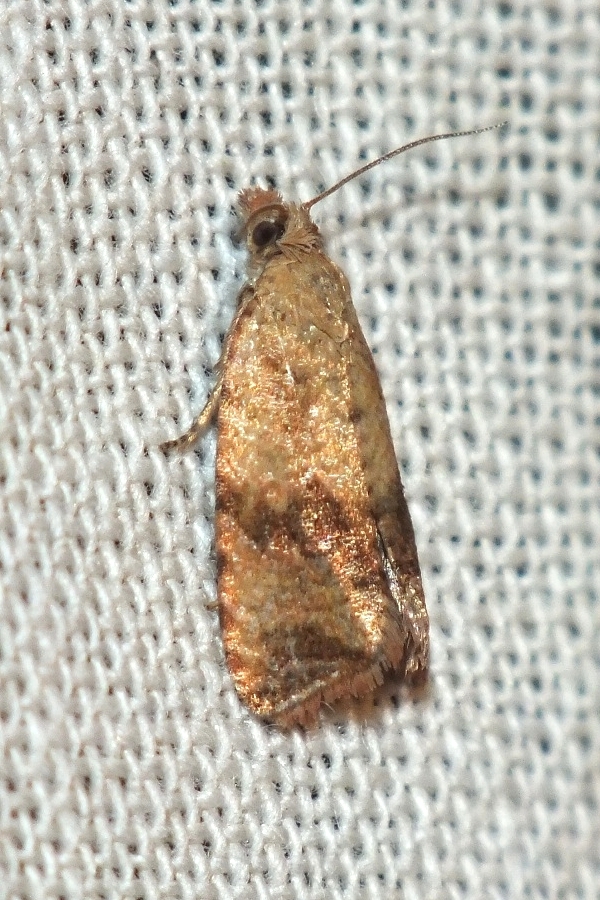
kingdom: Animalia
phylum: Arthropoda
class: Insecta
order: Lepidoptera
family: Tortricidae
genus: Celypha
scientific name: Celypha striana
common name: Barred marble
